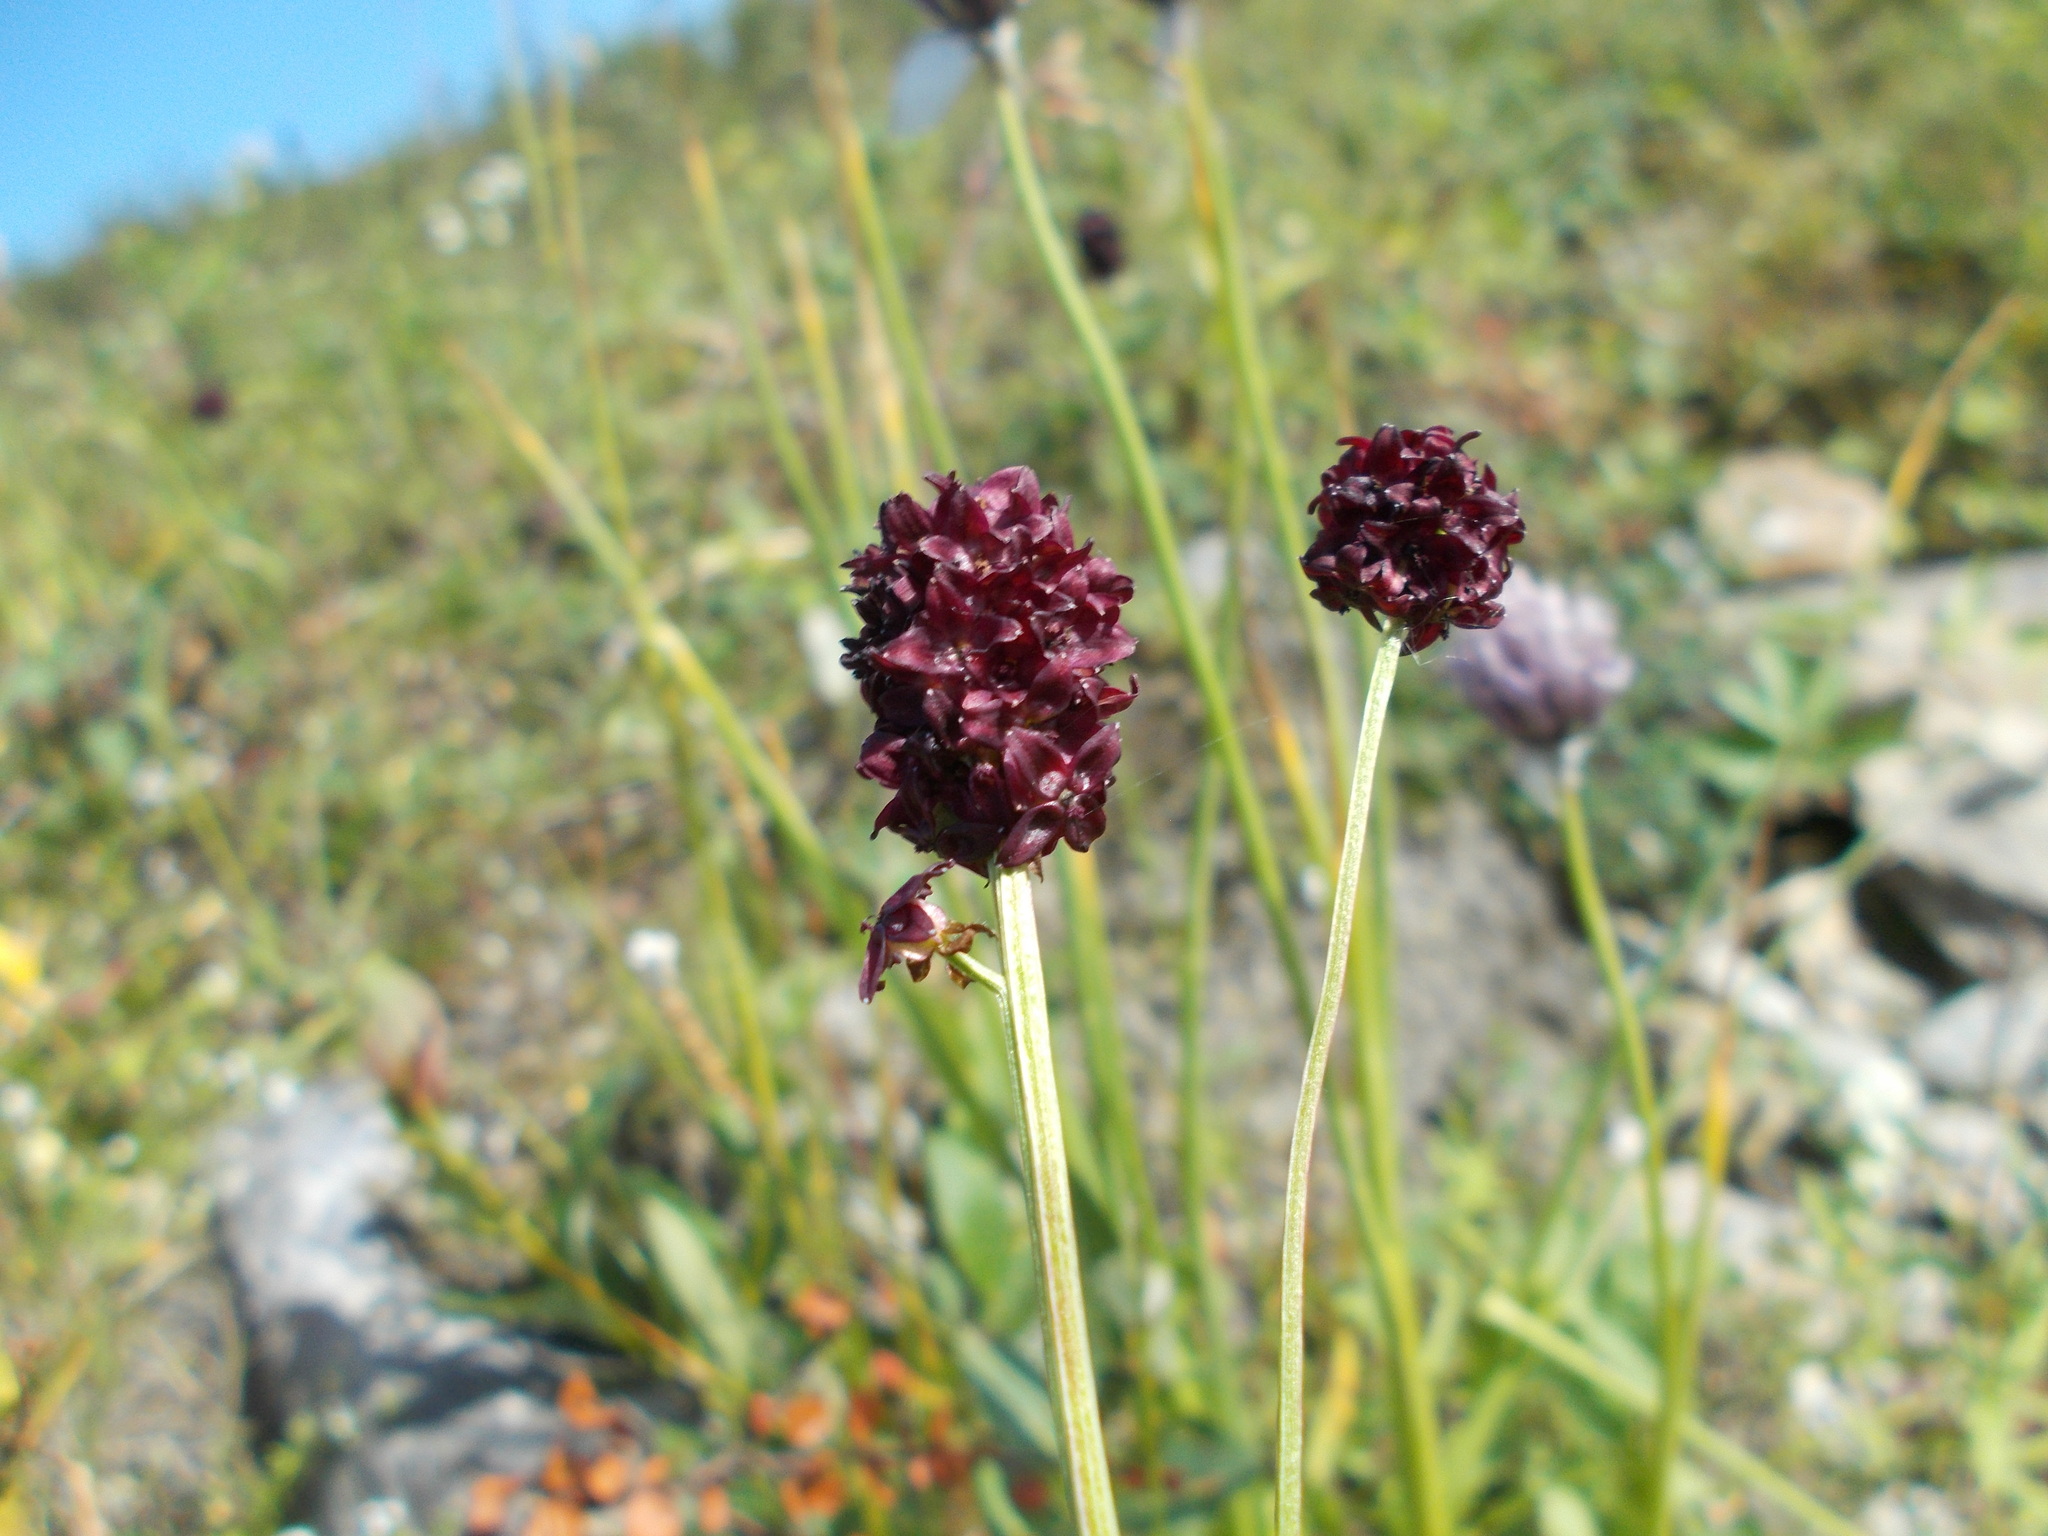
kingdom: Plantae
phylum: Tracheophyta
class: Magnoliopsida
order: Rosales
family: Rosaceae
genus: Sanguisorba
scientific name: Sanguisorba officinalis
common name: Great burnet
